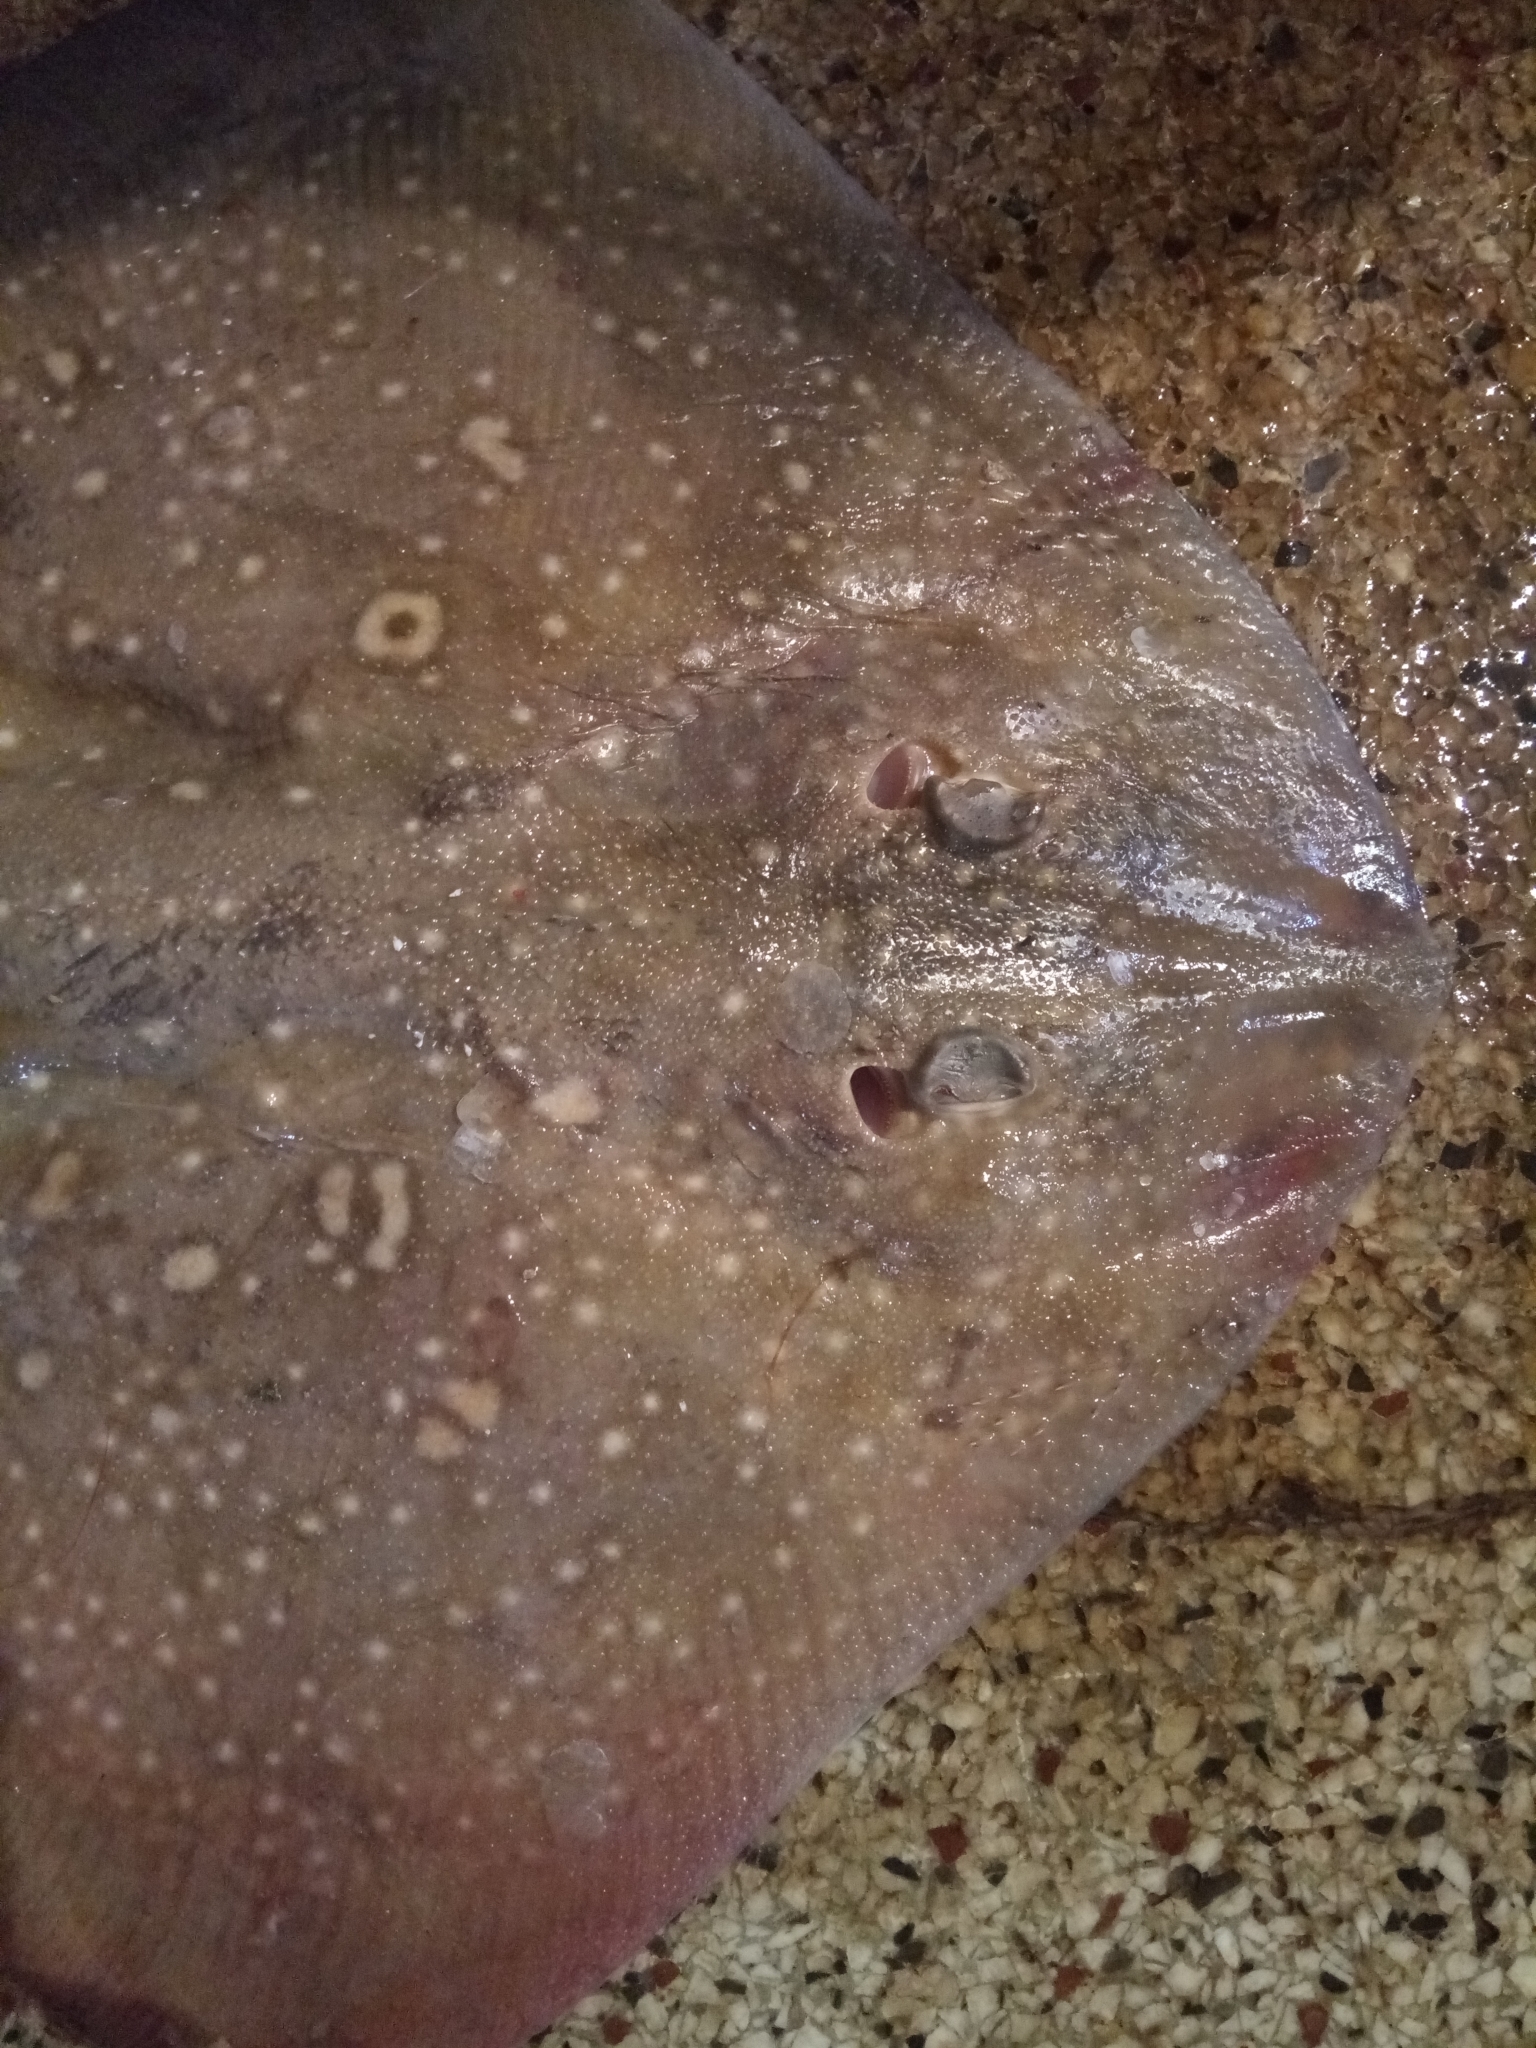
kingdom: Animalia
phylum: Chordata
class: Elasmobranchii
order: Rajiformes
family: Rajidae
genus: Raja
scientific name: Raja radula
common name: Rough ray
